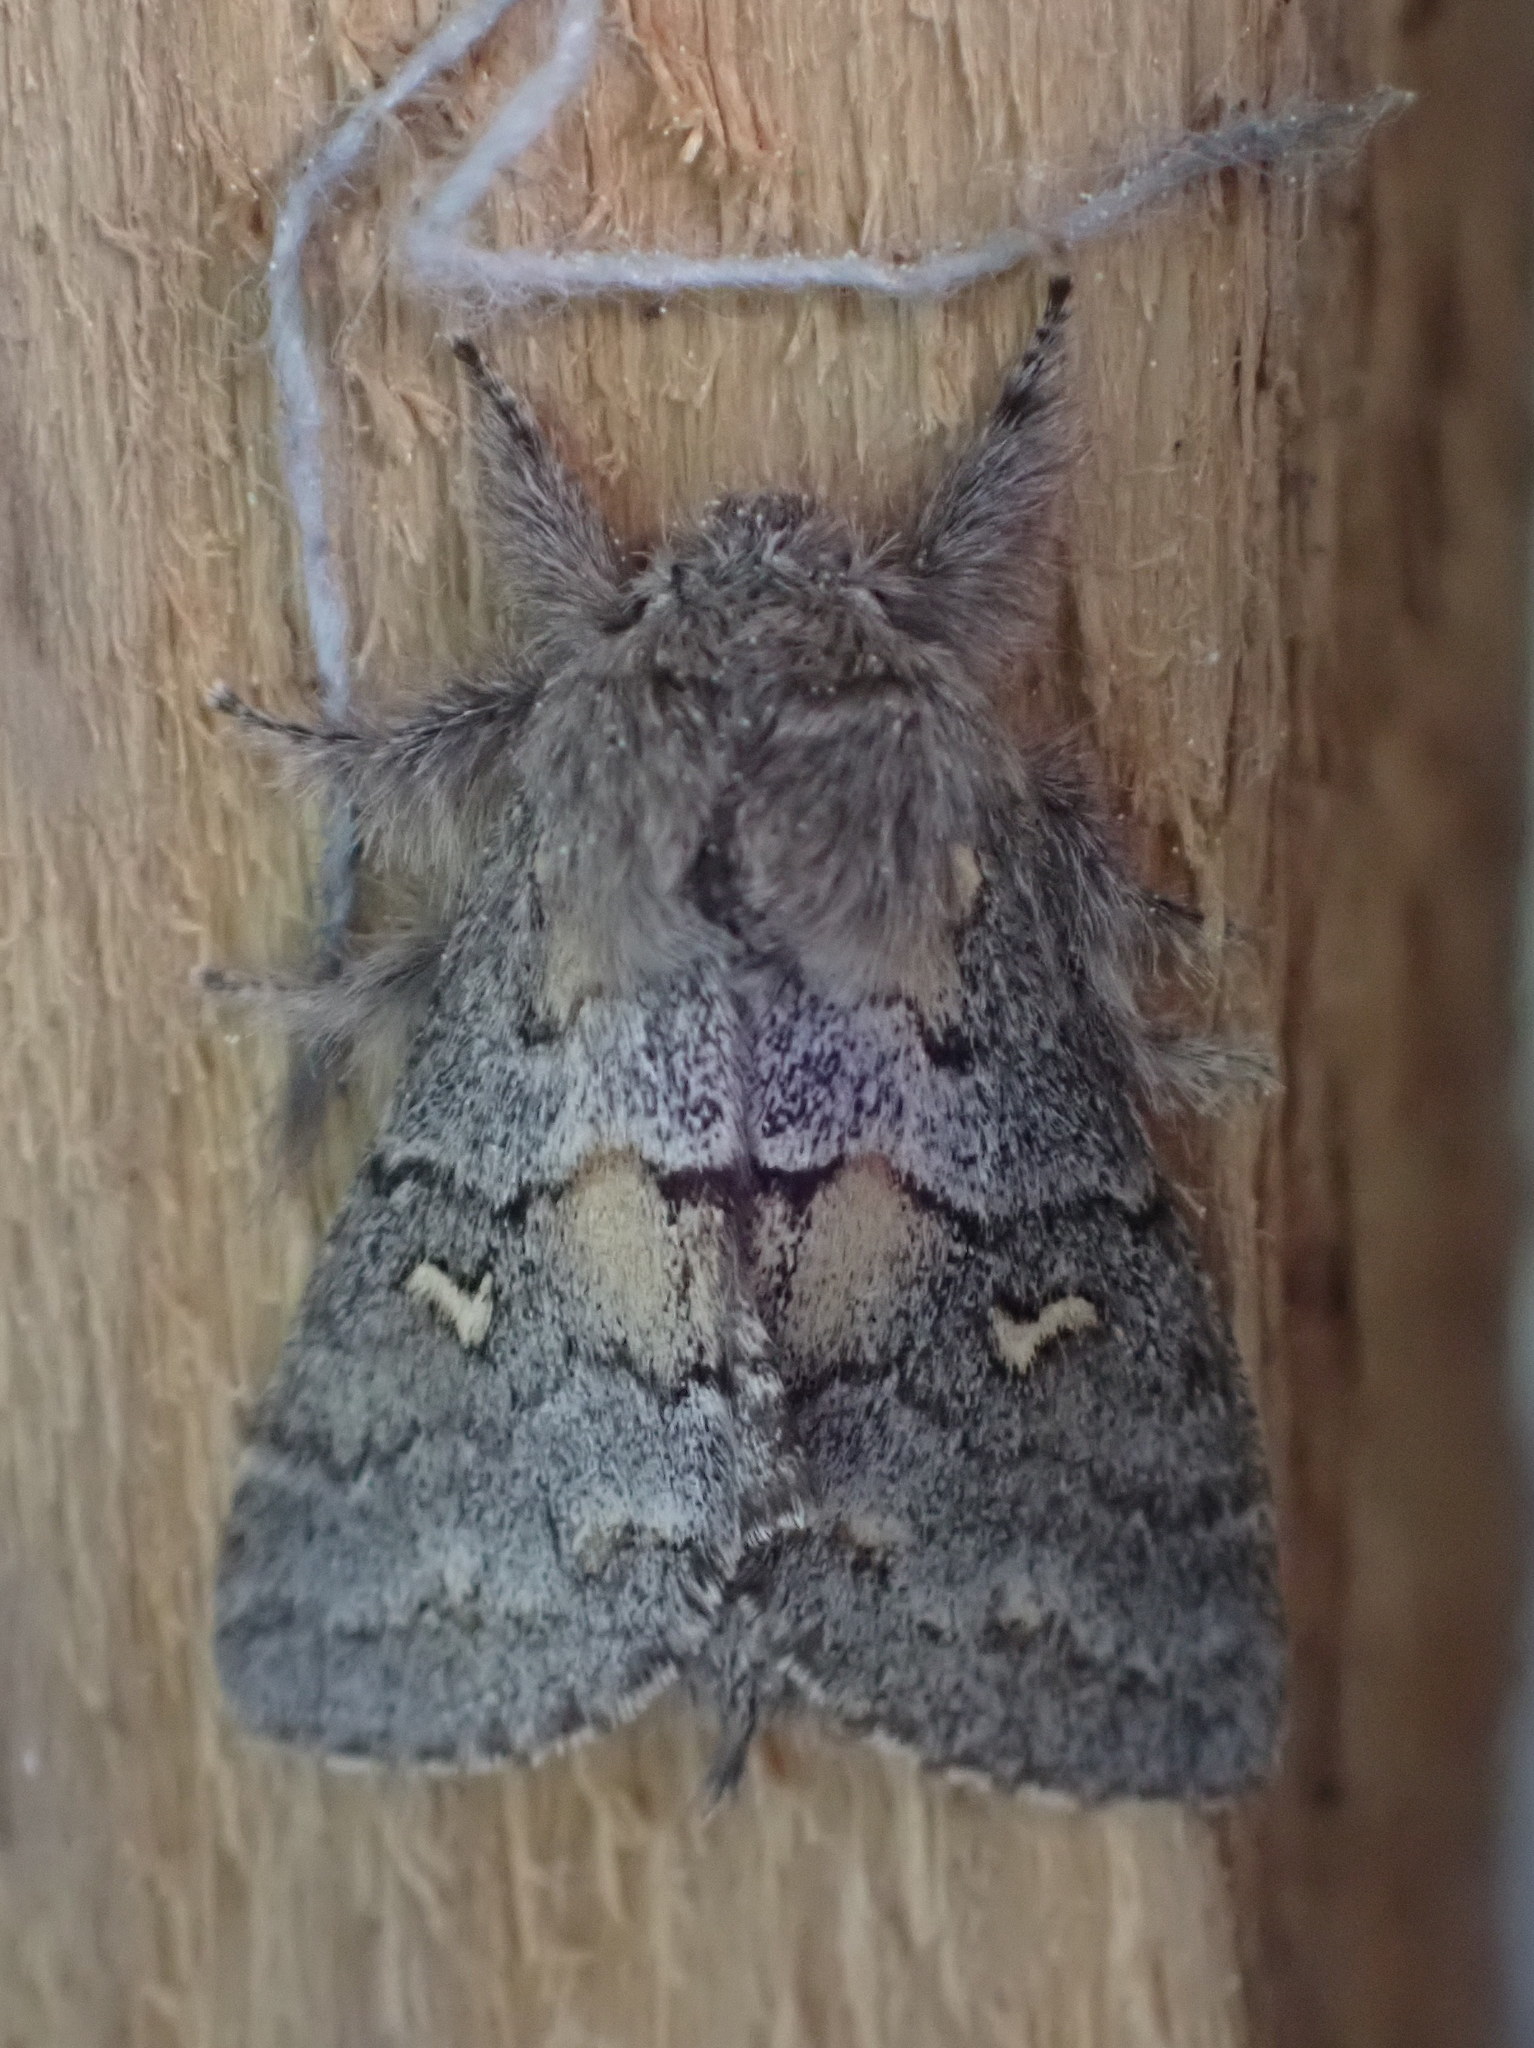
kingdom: Animalia
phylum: Arthropoda
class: Insecta
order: Lepidoptera
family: Notodontidae
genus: Gluphisia
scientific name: Gluphisia avimacula
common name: Four-spotted gluphisia moth
